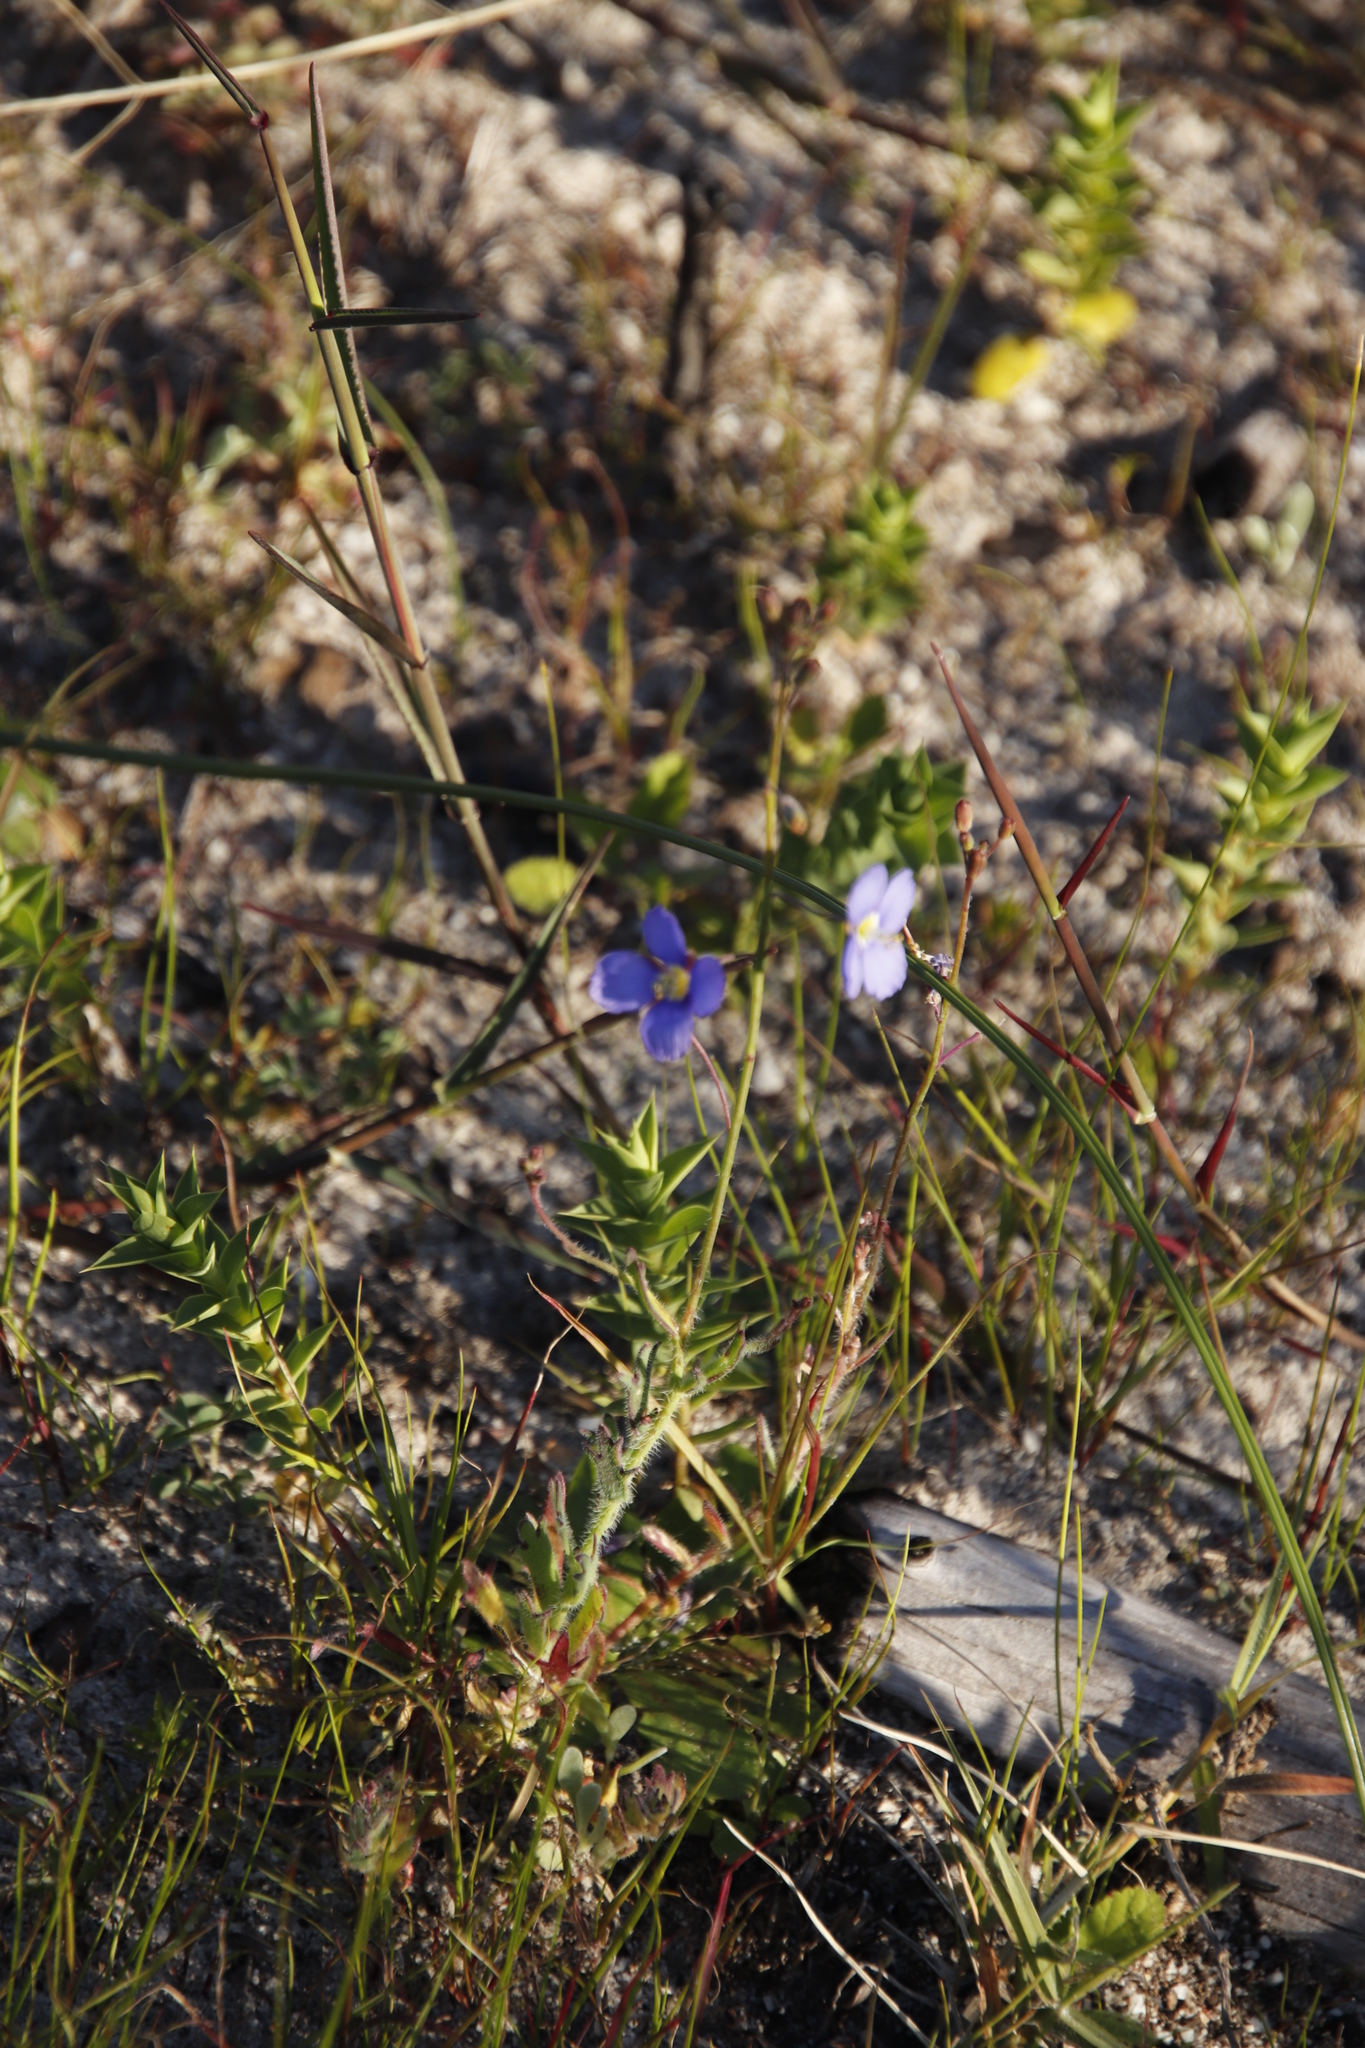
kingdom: Plantae
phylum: Tracheophyta
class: Magnoliopsida
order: Brassicales
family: Brassicaceae
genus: Heliophila
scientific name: Heliophila africana
